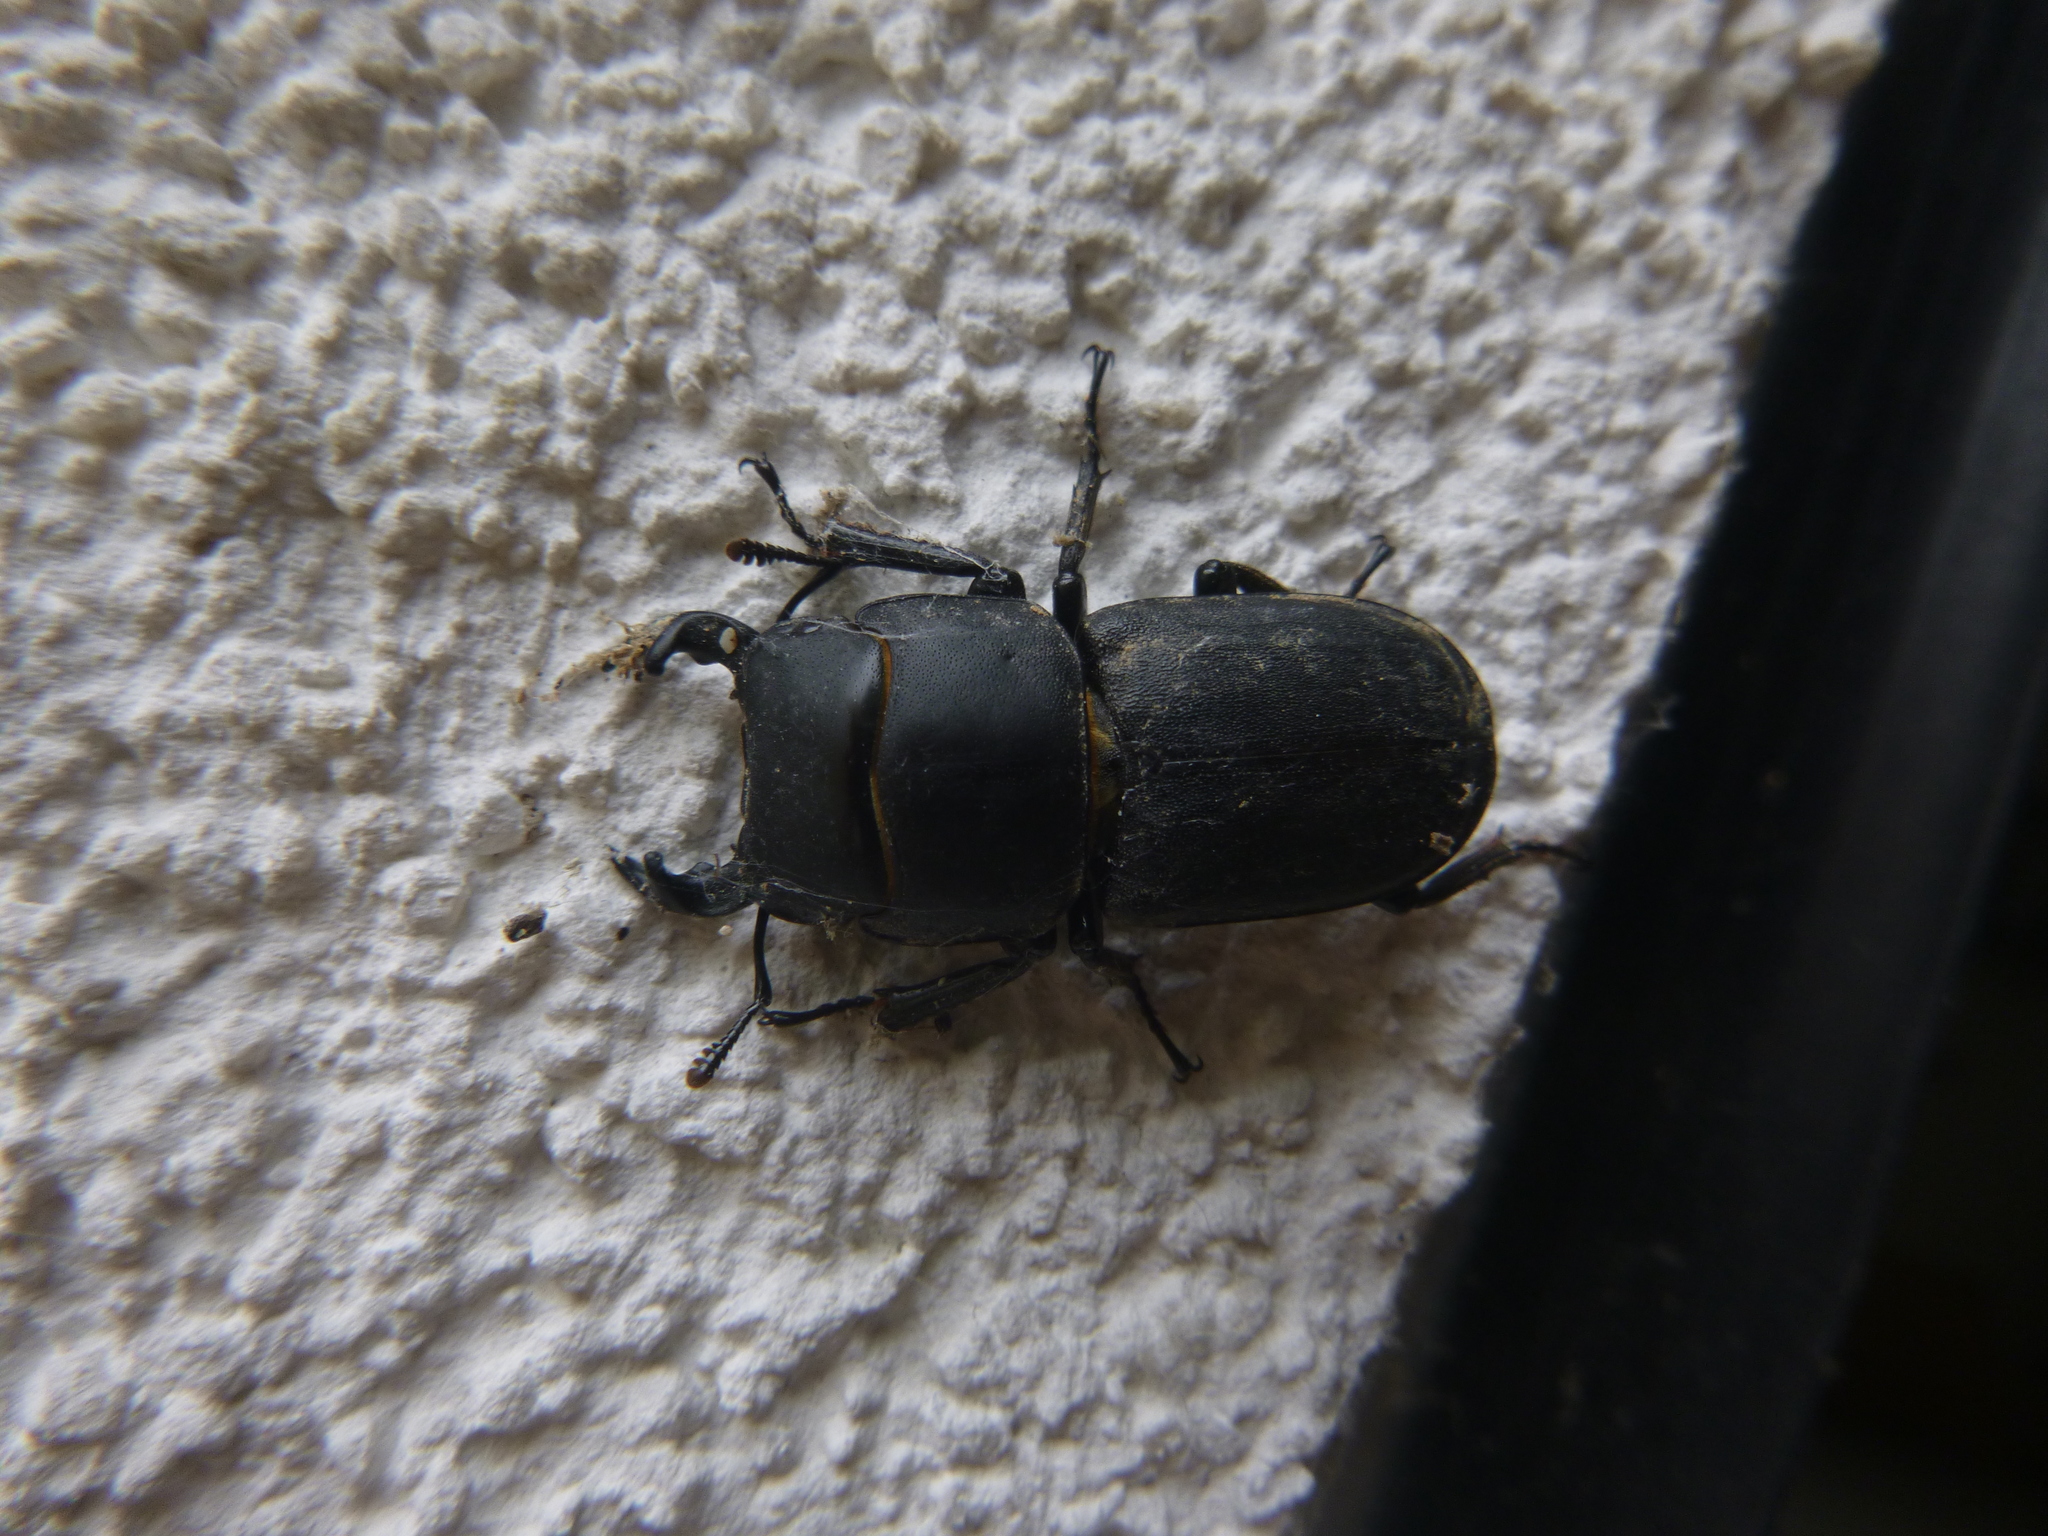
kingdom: Animalia
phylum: Arthropoda
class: Insecta
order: Coleoptera
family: Lucanidae
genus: Dorcus
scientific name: Dorcus parallelipipedus
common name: Lesser stag beetle
